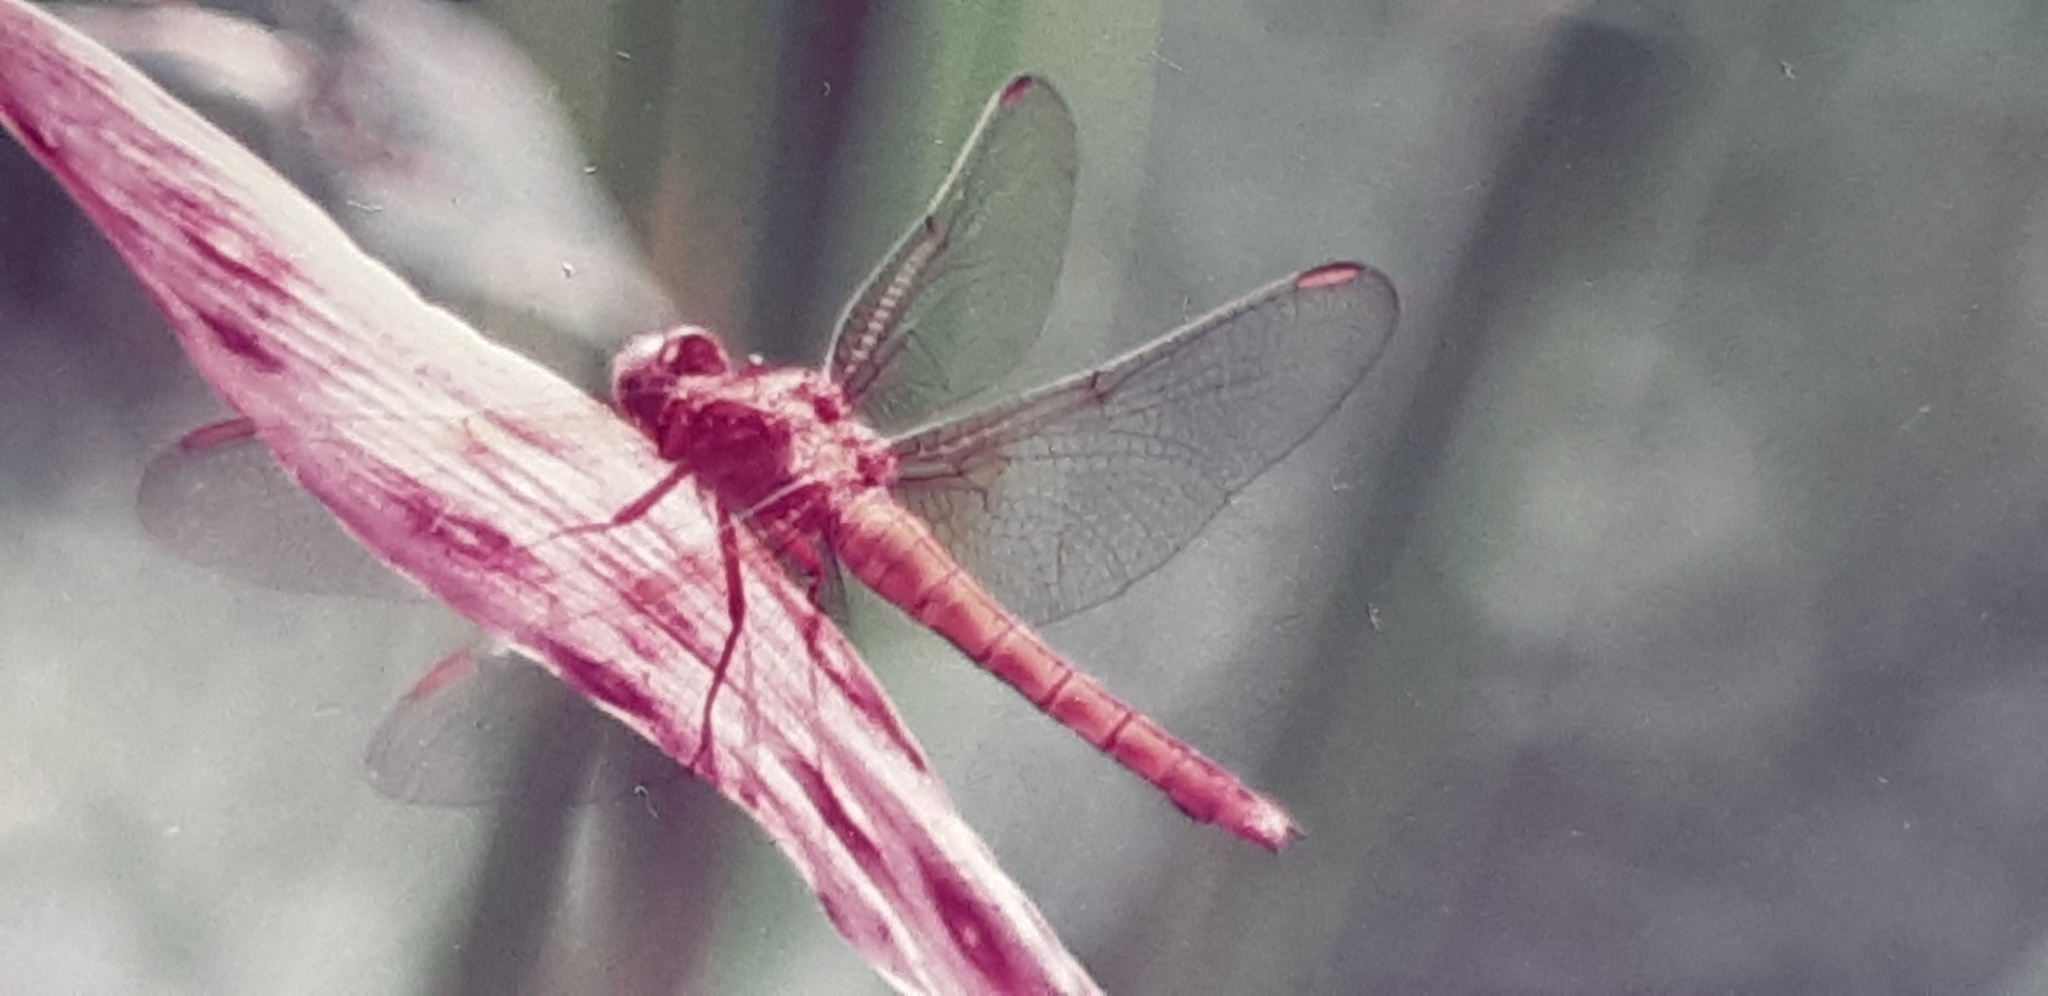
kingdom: Animalia
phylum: Arthropoda
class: Insecta
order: Odonata
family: Libellulidae
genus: Orthetrum
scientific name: Orthetrum coerulescens
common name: Keeled skimmer
